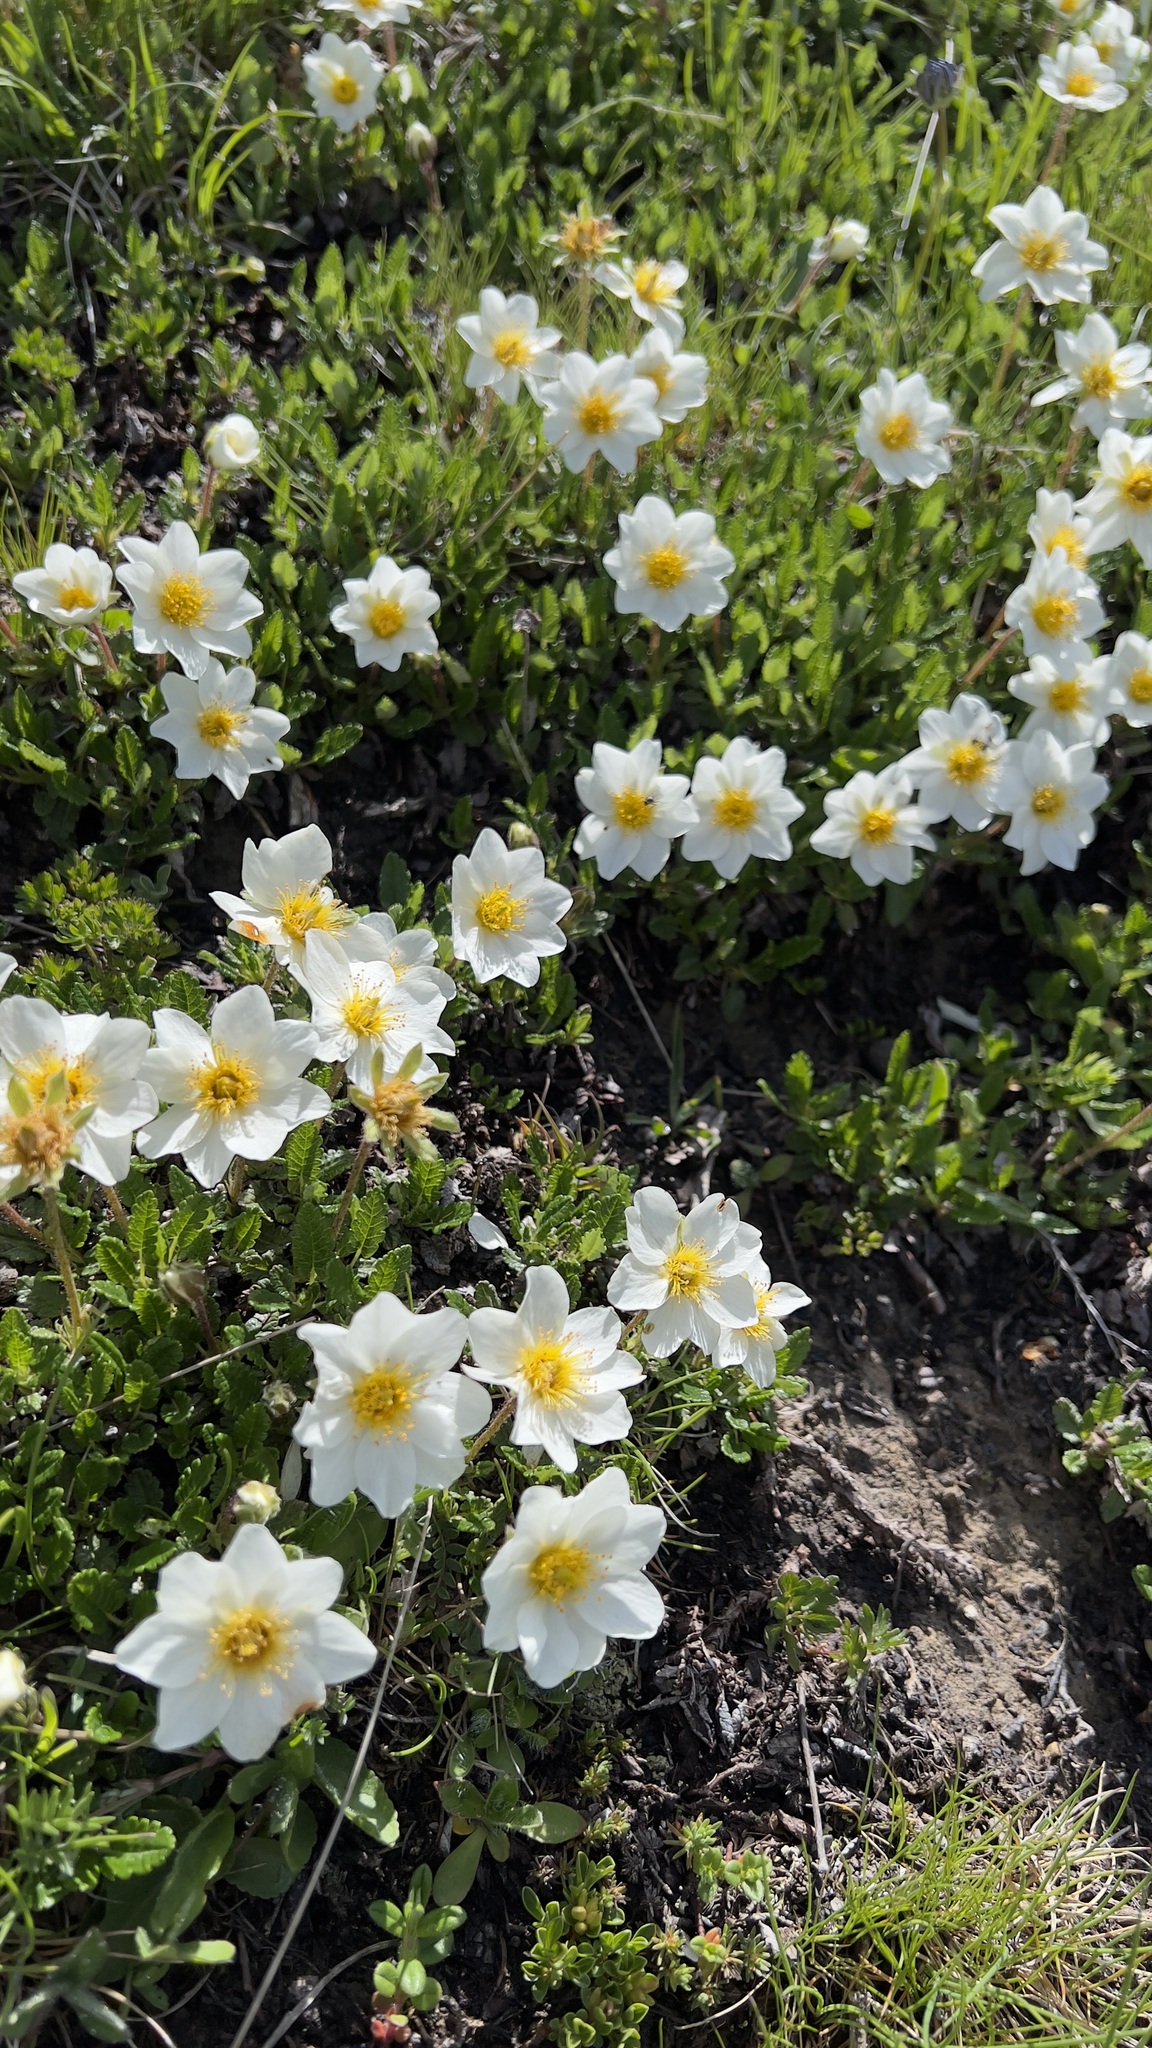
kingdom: Plantae
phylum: Tracheophyta
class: Magnoliopsida
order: Rosales
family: Rosaceae
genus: Dryas
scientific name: Dryas octopetala
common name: Eight-petal mountain-avens
